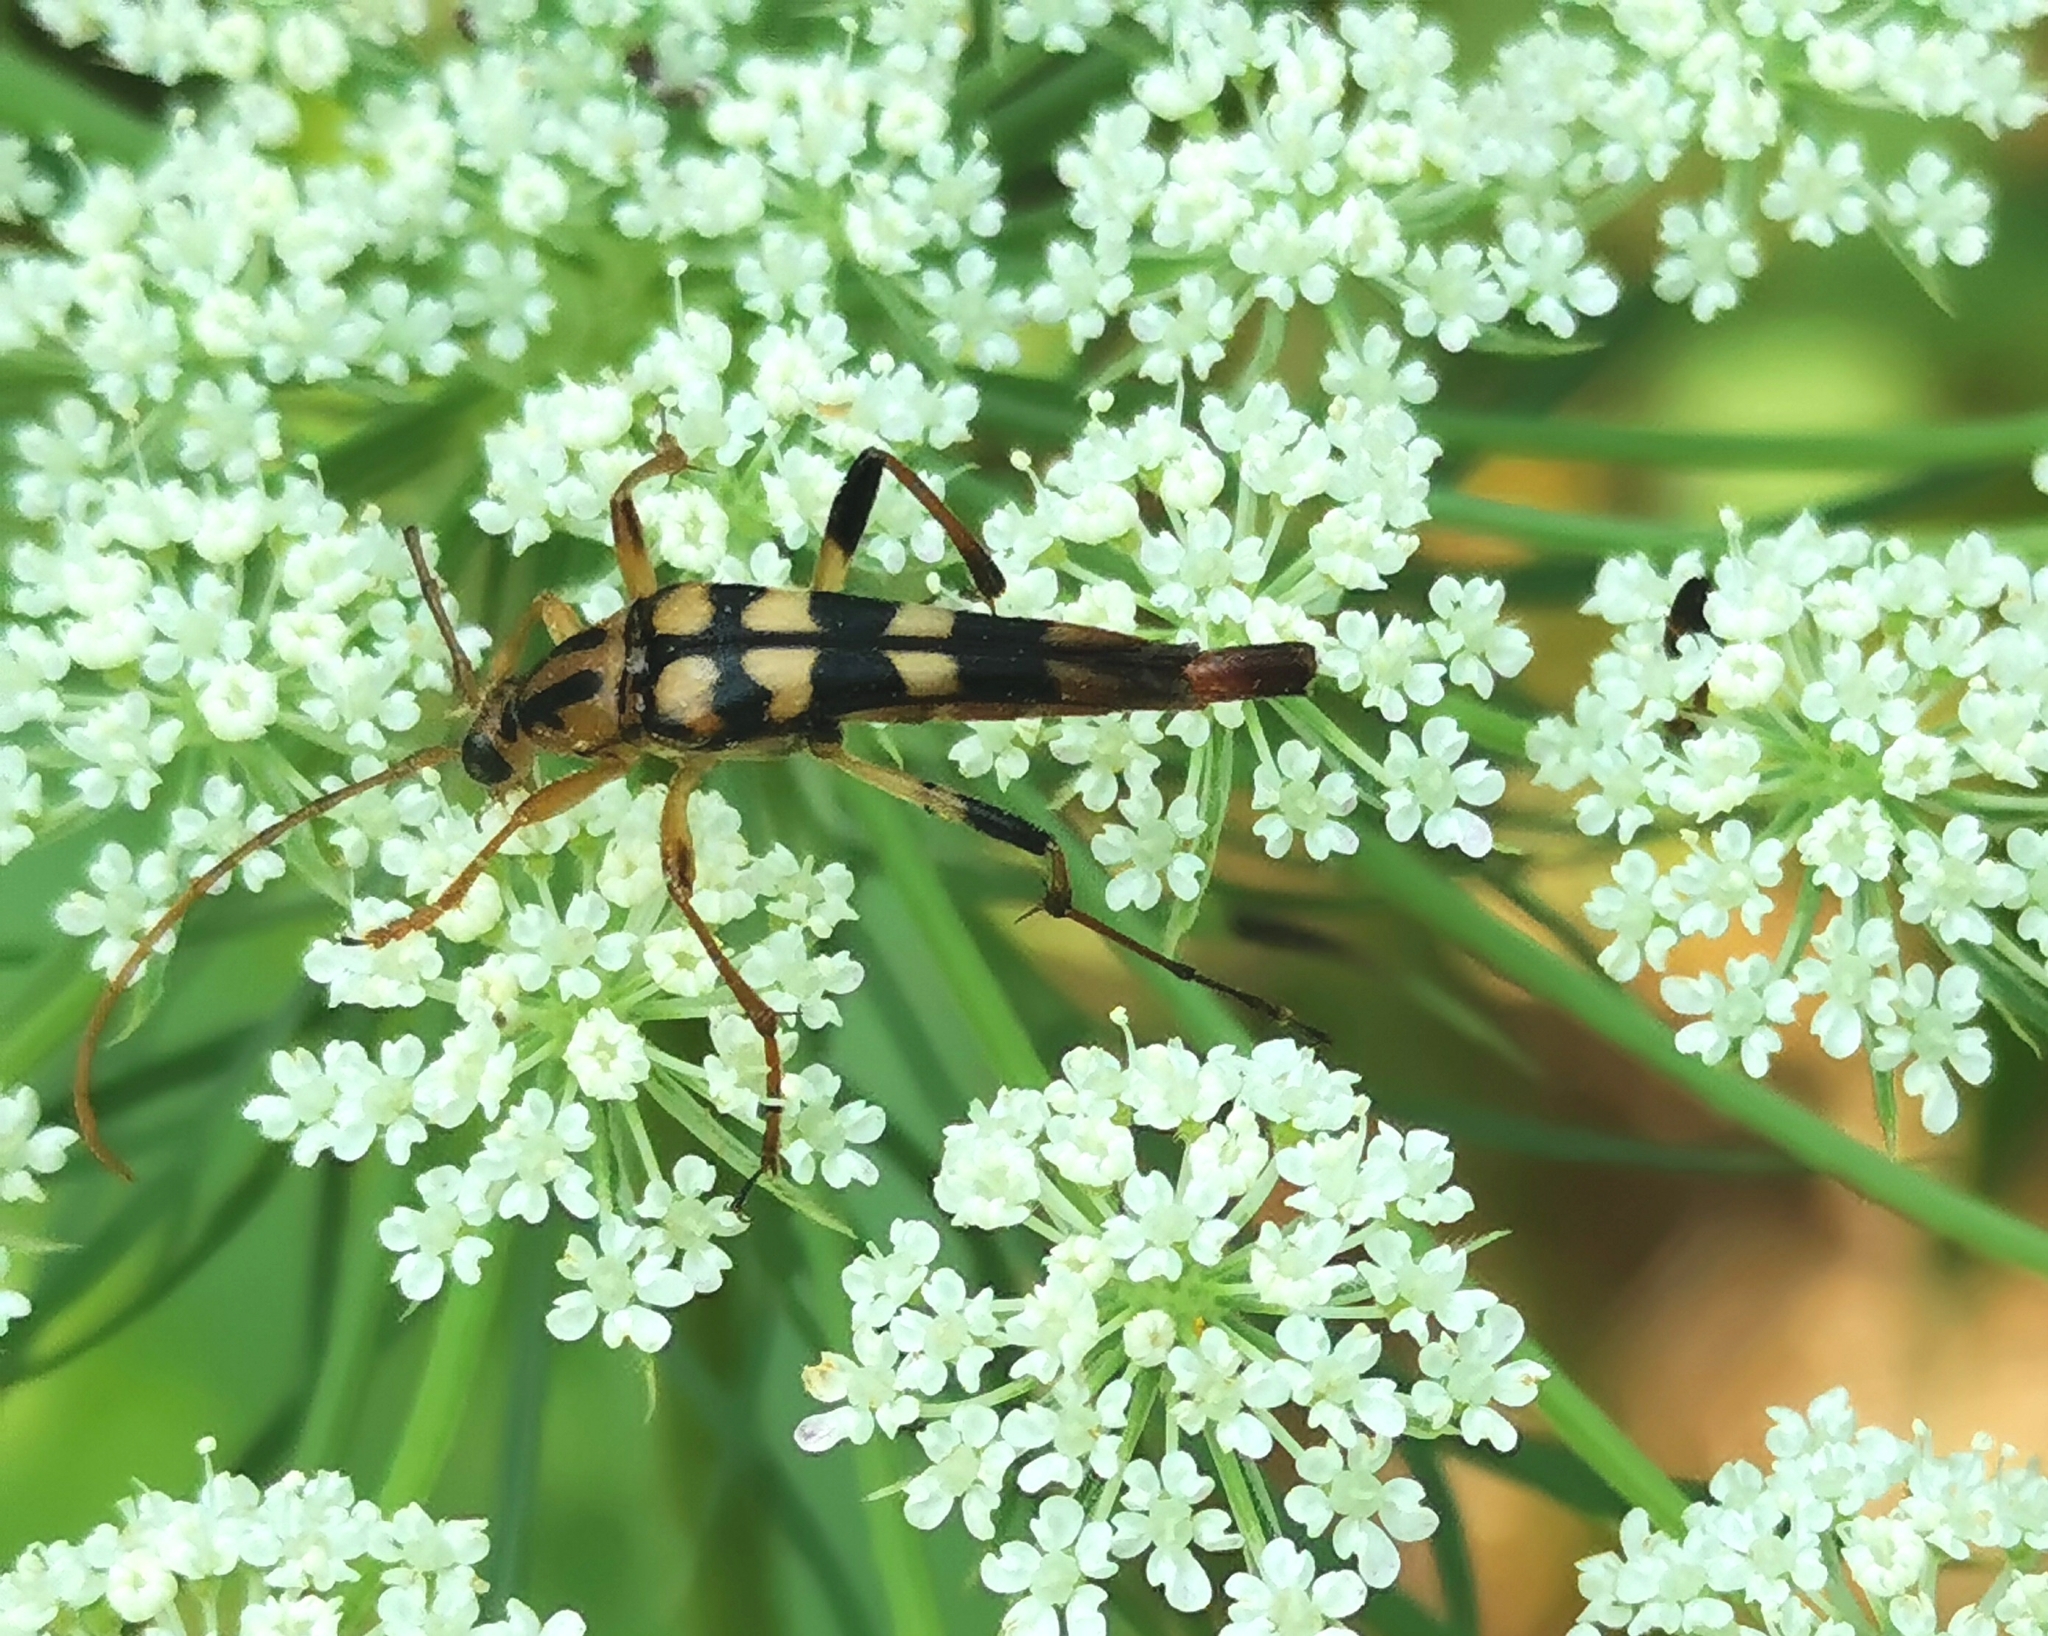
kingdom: Animalia
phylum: Arthropoda
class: Insecta
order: Coleoptera
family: Cerambycidae
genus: Strangalia
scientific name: Strangalia luteicornis
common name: Yellow-horned flower longhorn beetle
